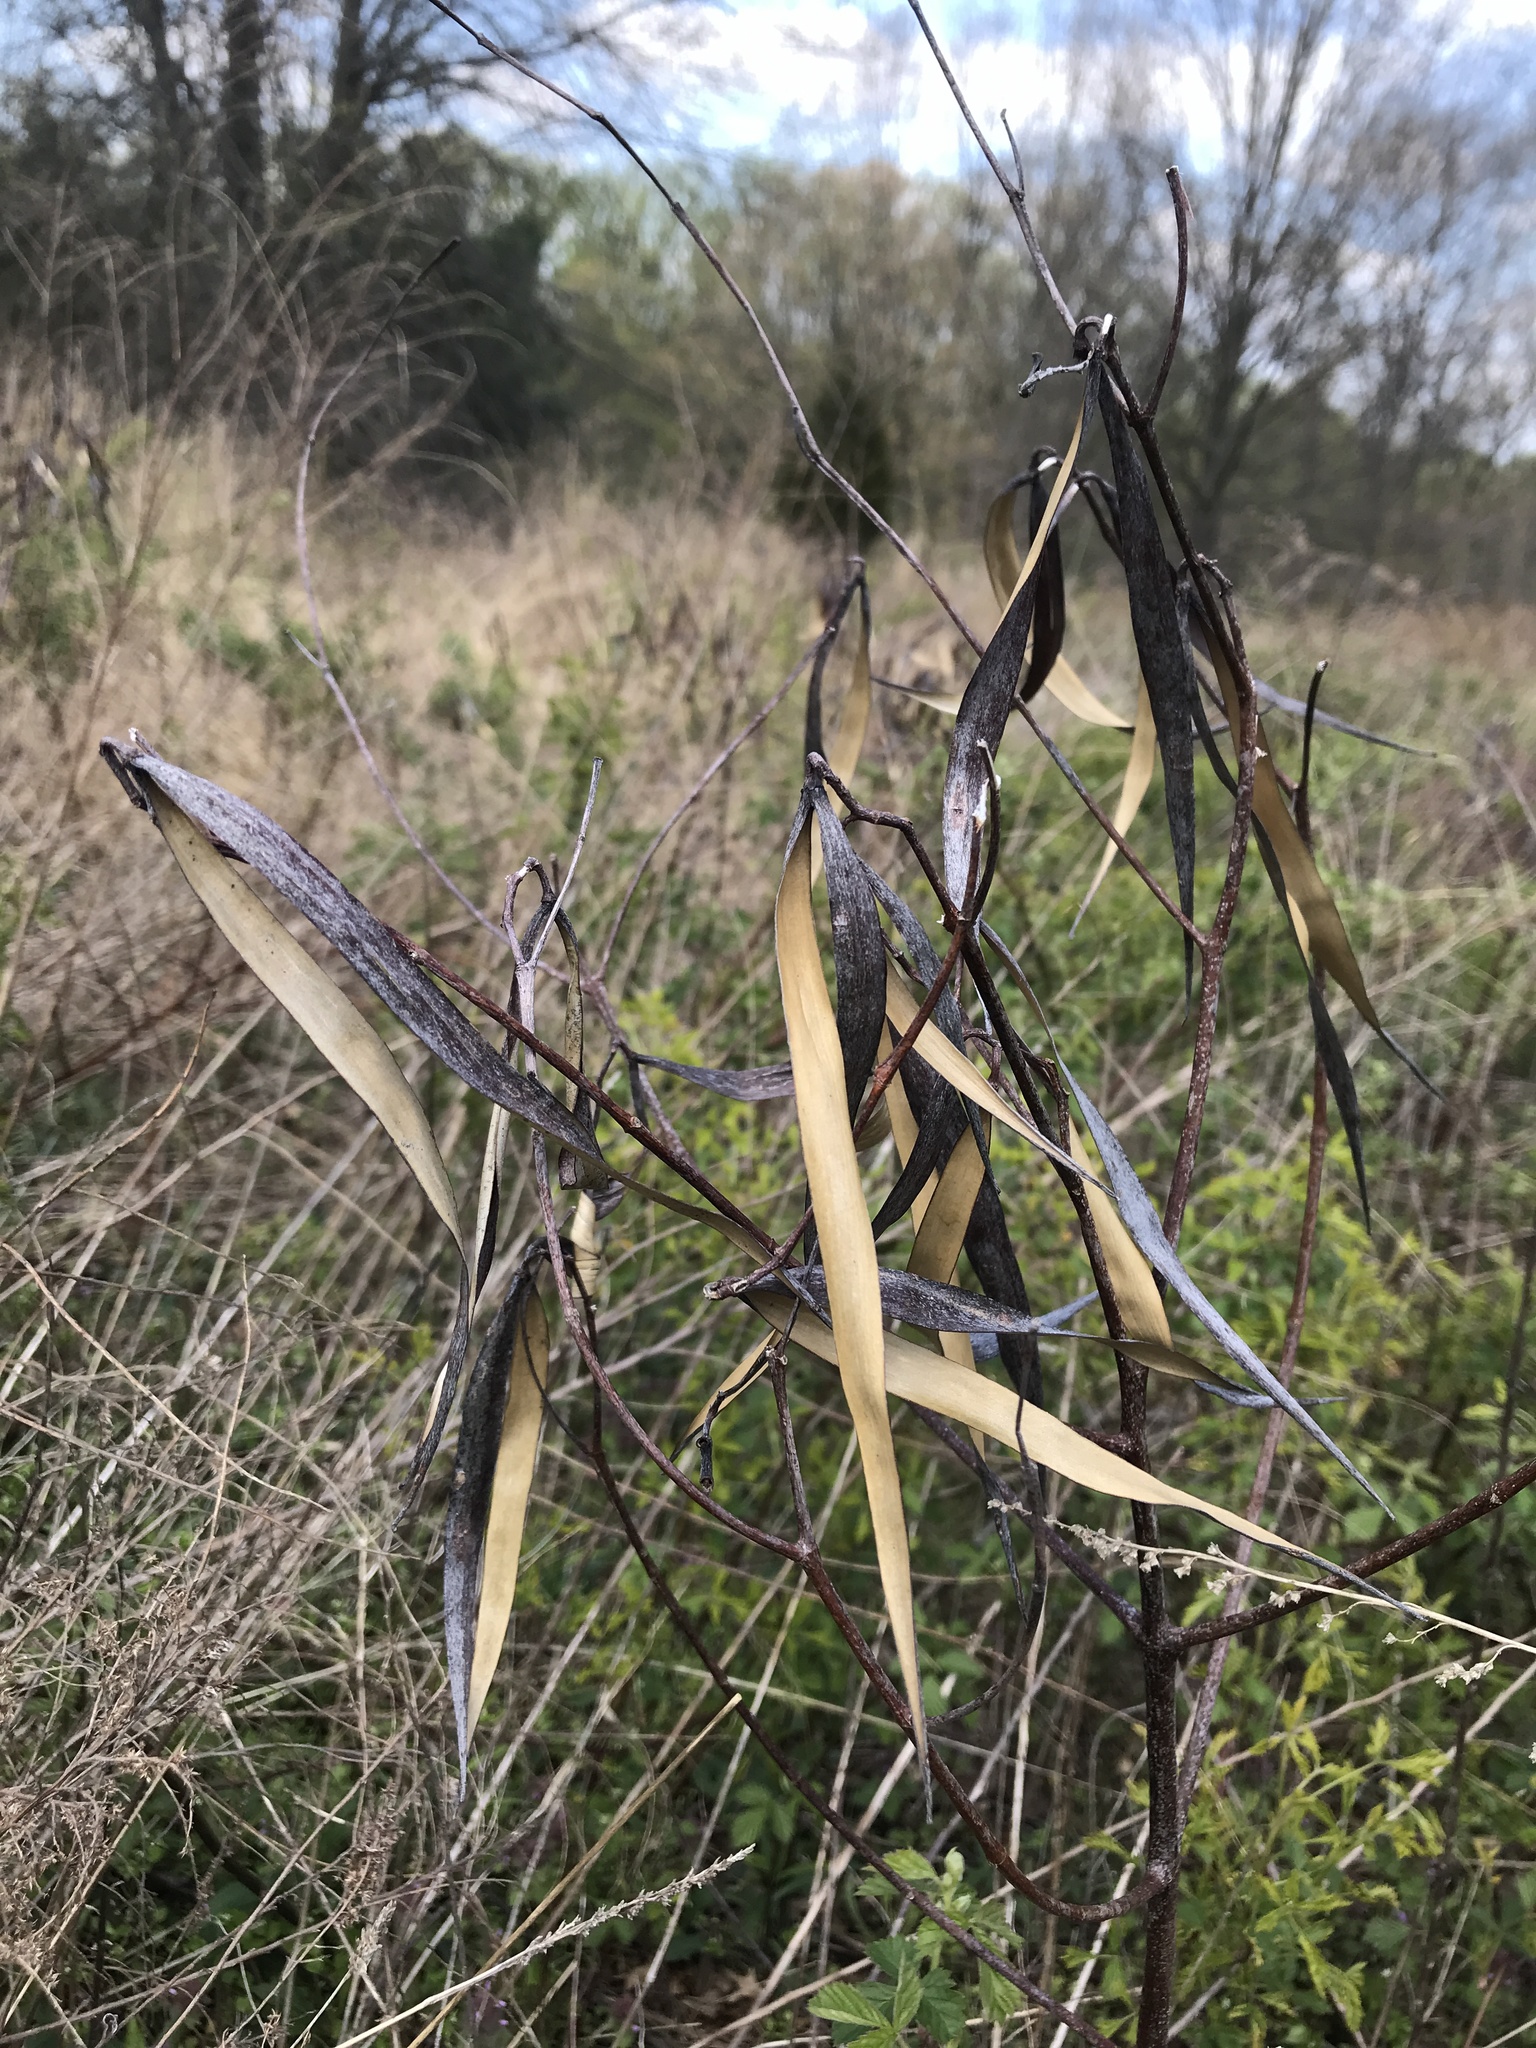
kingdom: Plantae
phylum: Tracheophyta
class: Magnoliopsida
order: Gentianales
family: Apocynaceae
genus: Apocynum
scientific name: Apocynum cannabinum
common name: Hemp dogbane
